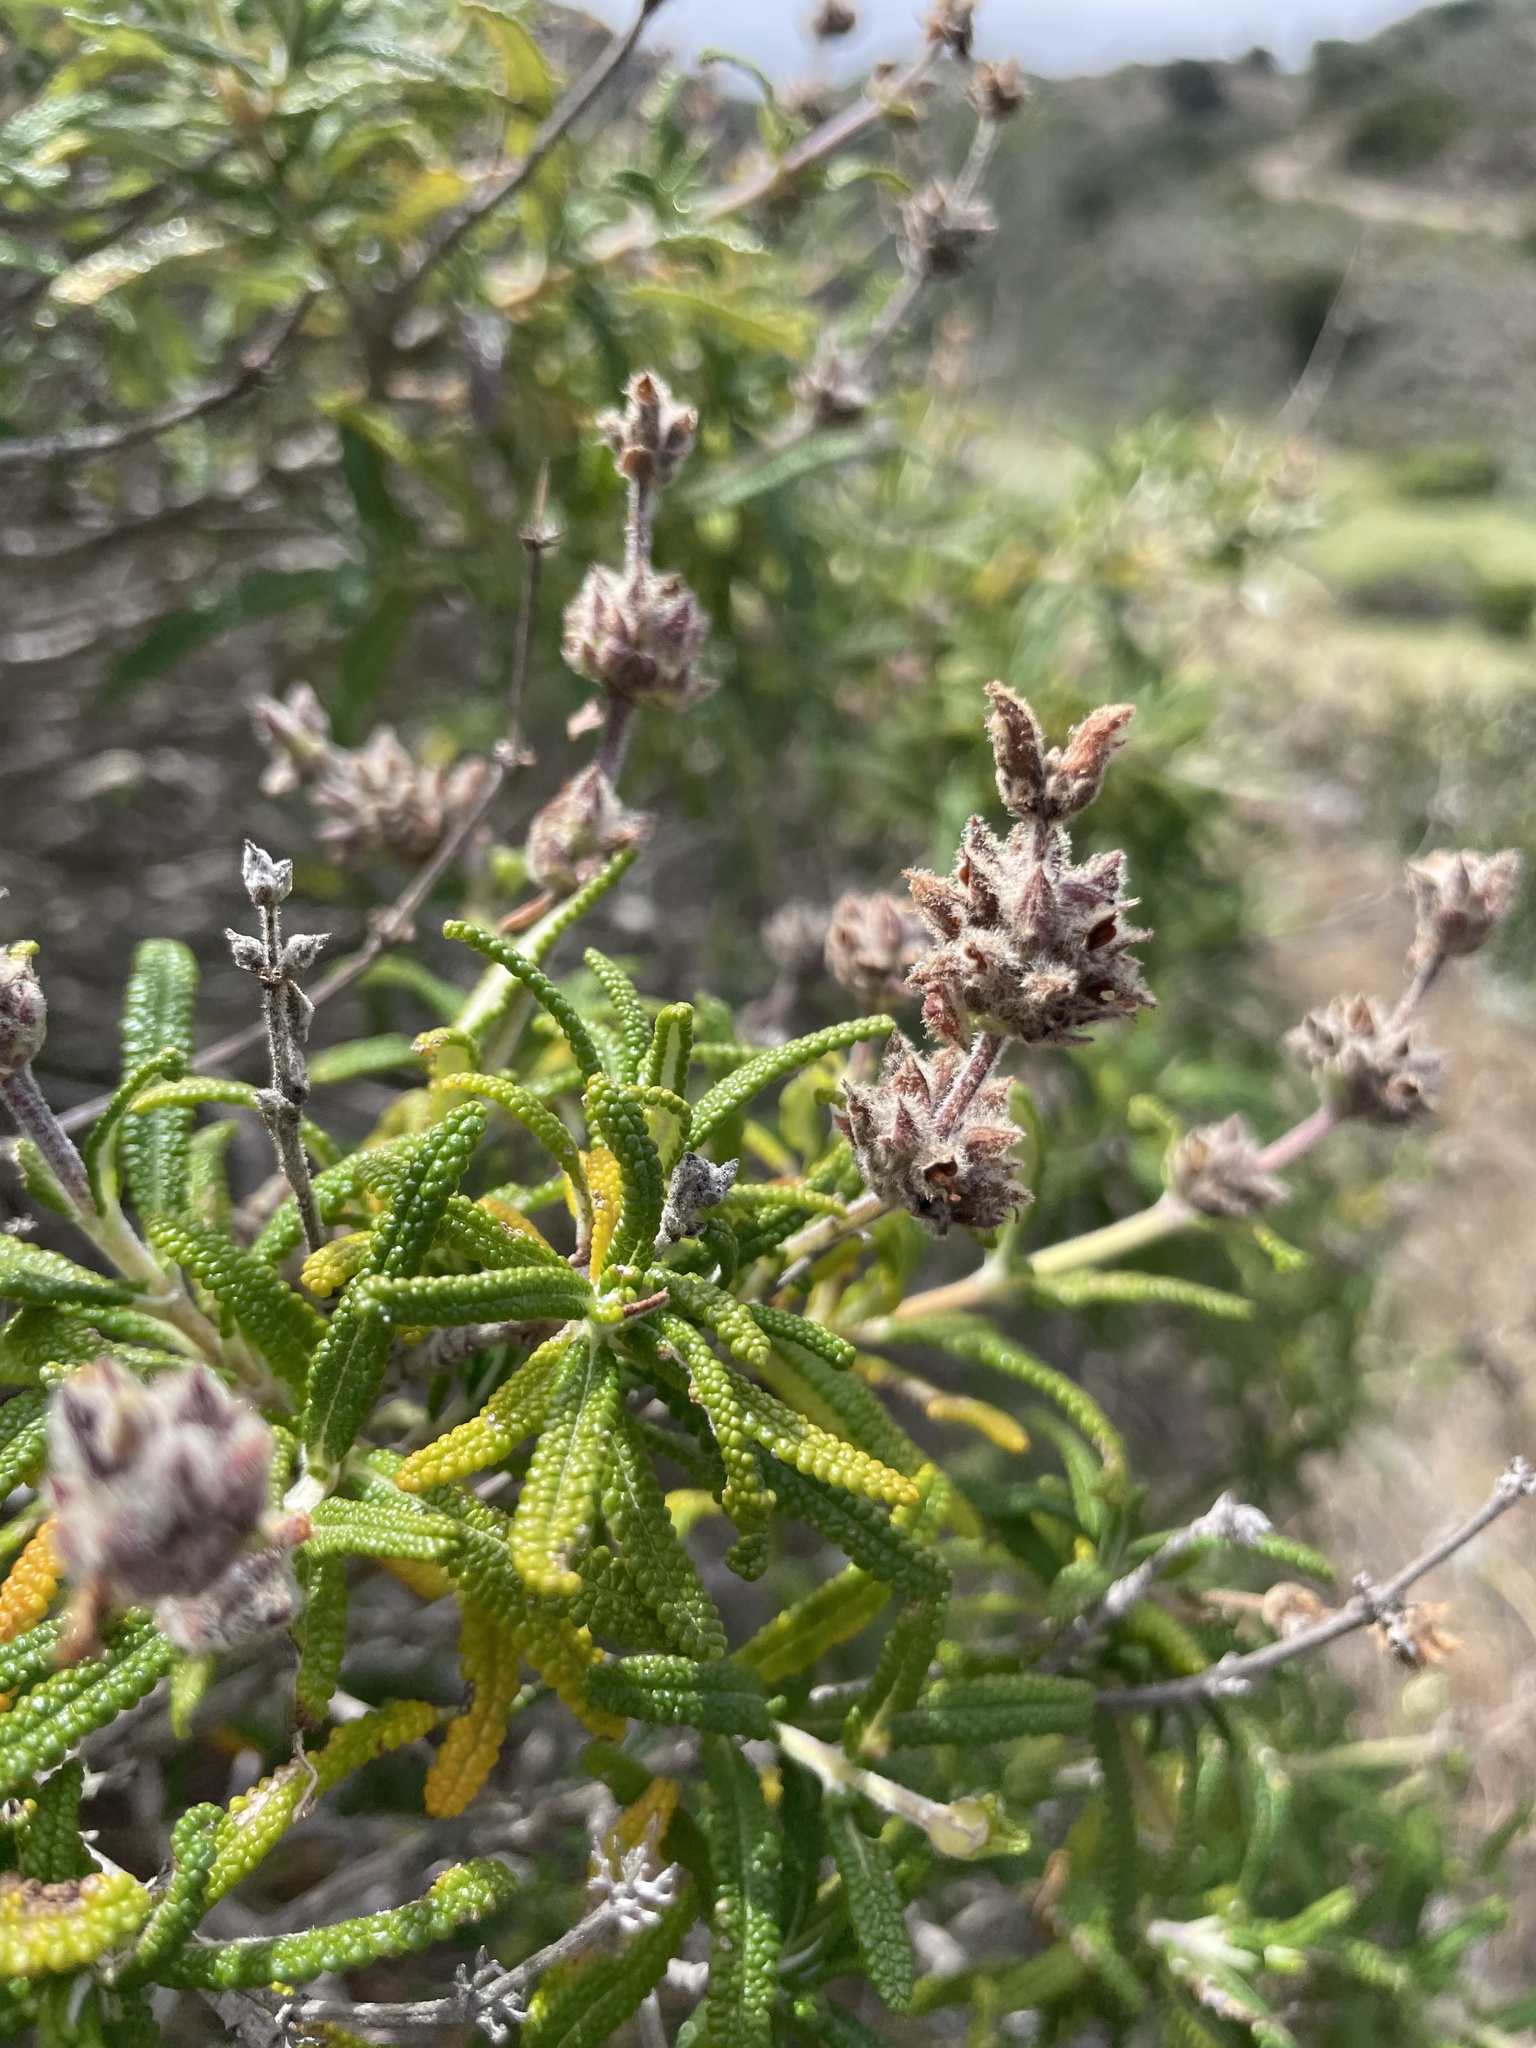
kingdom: Plantae
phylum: Tracheophyta
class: Magnoliopsida
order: Lamiales
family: Lamiaceae
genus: Salvia
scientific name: Salvia brandegeei
